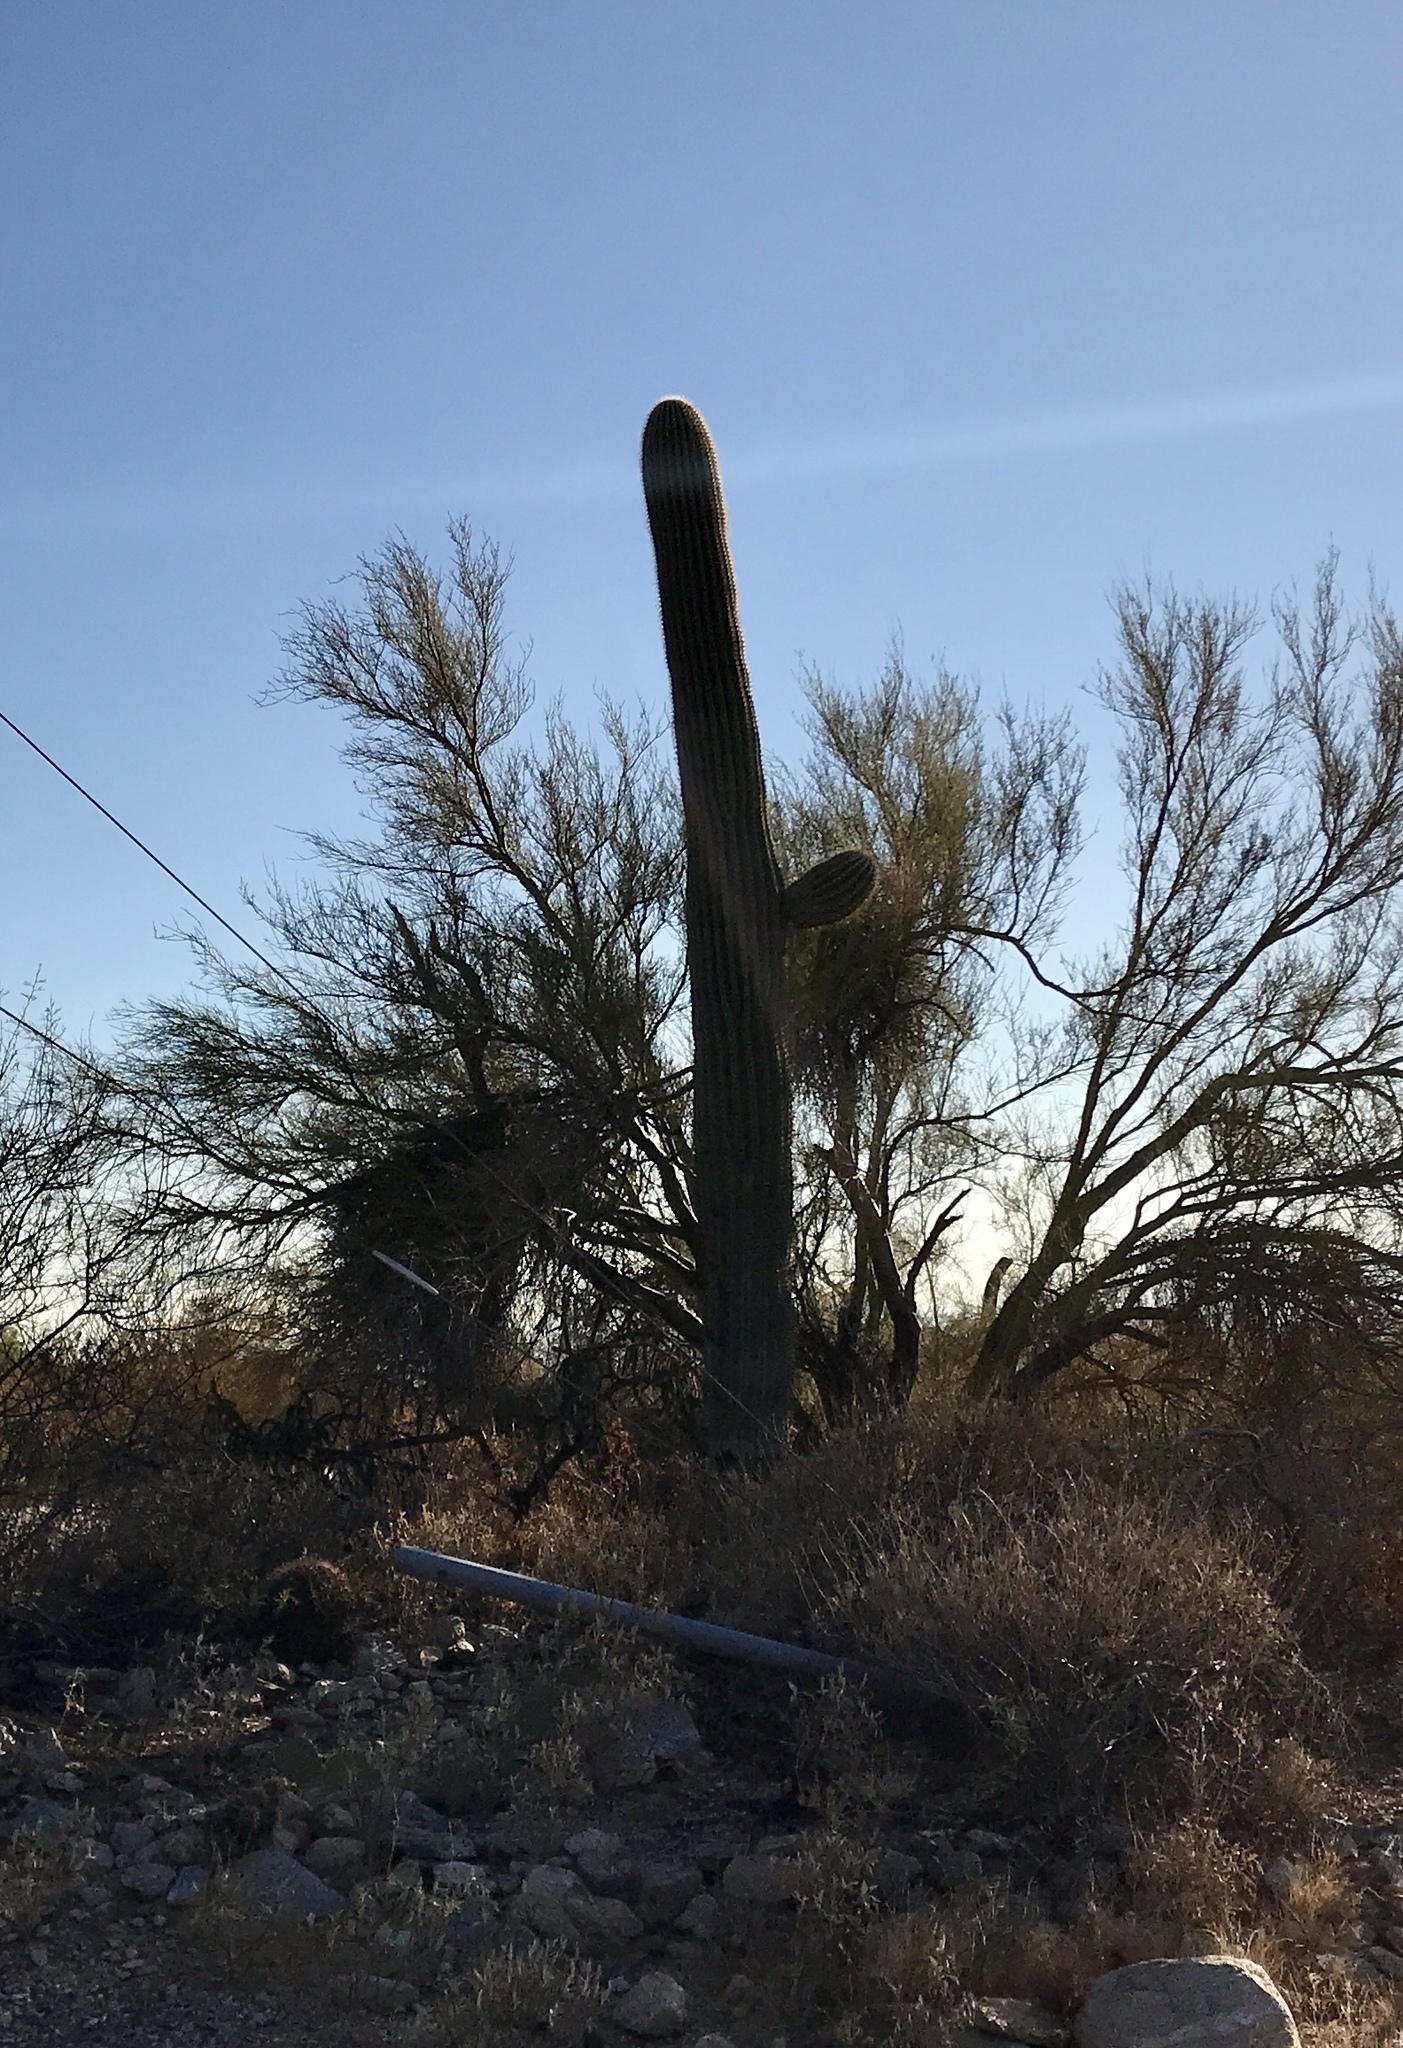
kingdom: Plantae
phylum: Tracheophyta
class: Magnoliopsida
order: Caryophyllales
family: Cactaceae
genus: Carnegiea
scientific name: Carnegiea gigantea
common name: Saguaro
